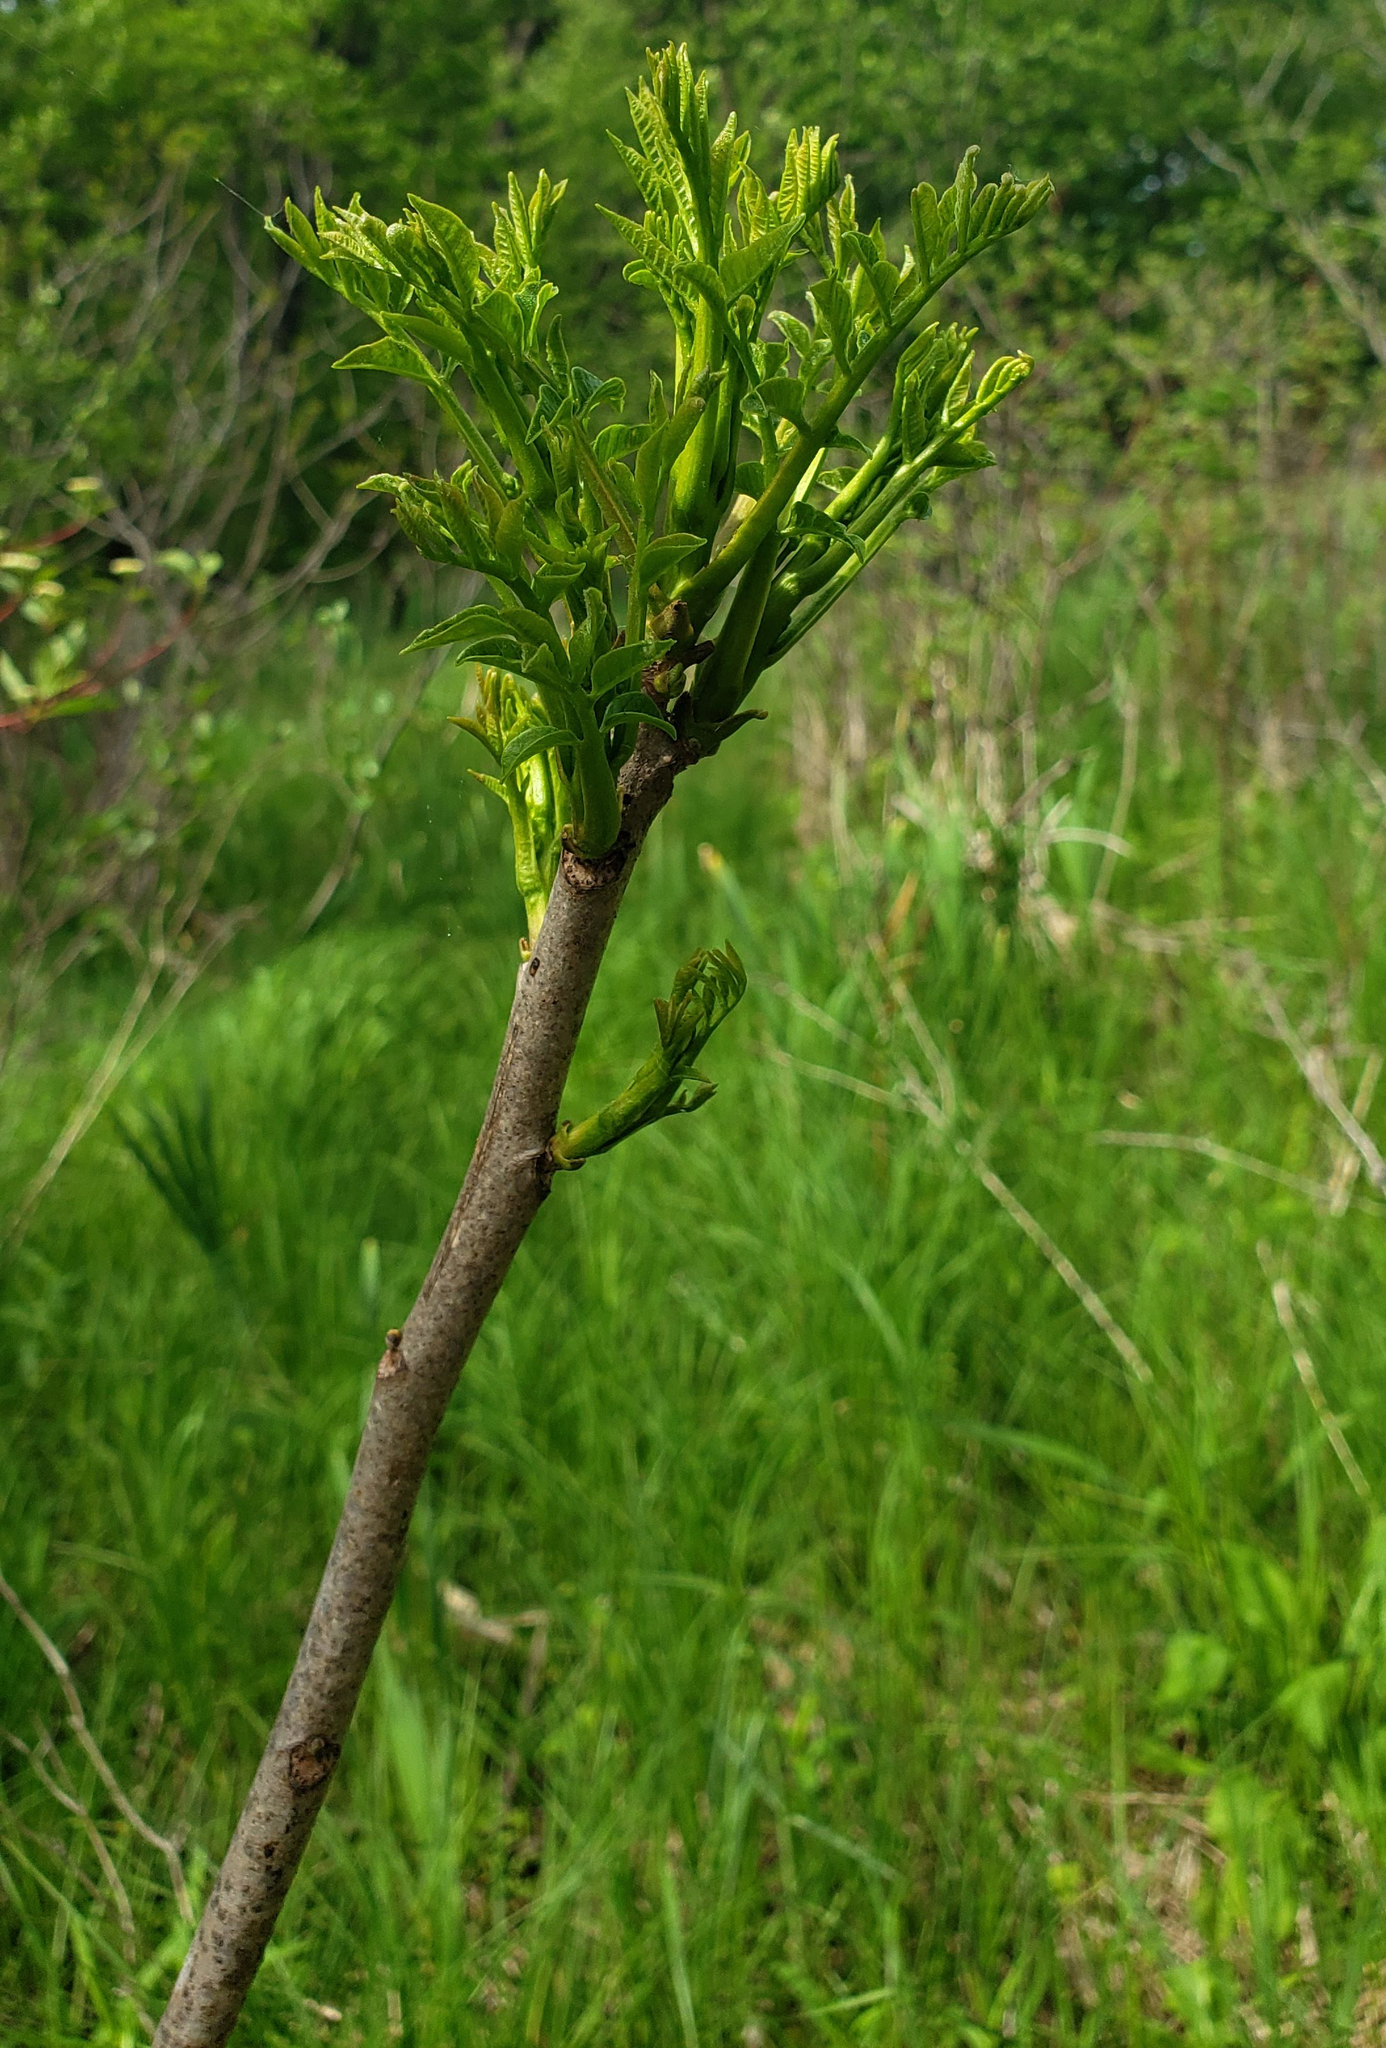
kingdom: Plantae
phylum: Tracheophyta
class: Magnoliopsida
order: Sapindales
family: Anacardiaceae
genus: Toxicodendron
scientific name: Toxicodendron vernix
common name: Poison sumac
